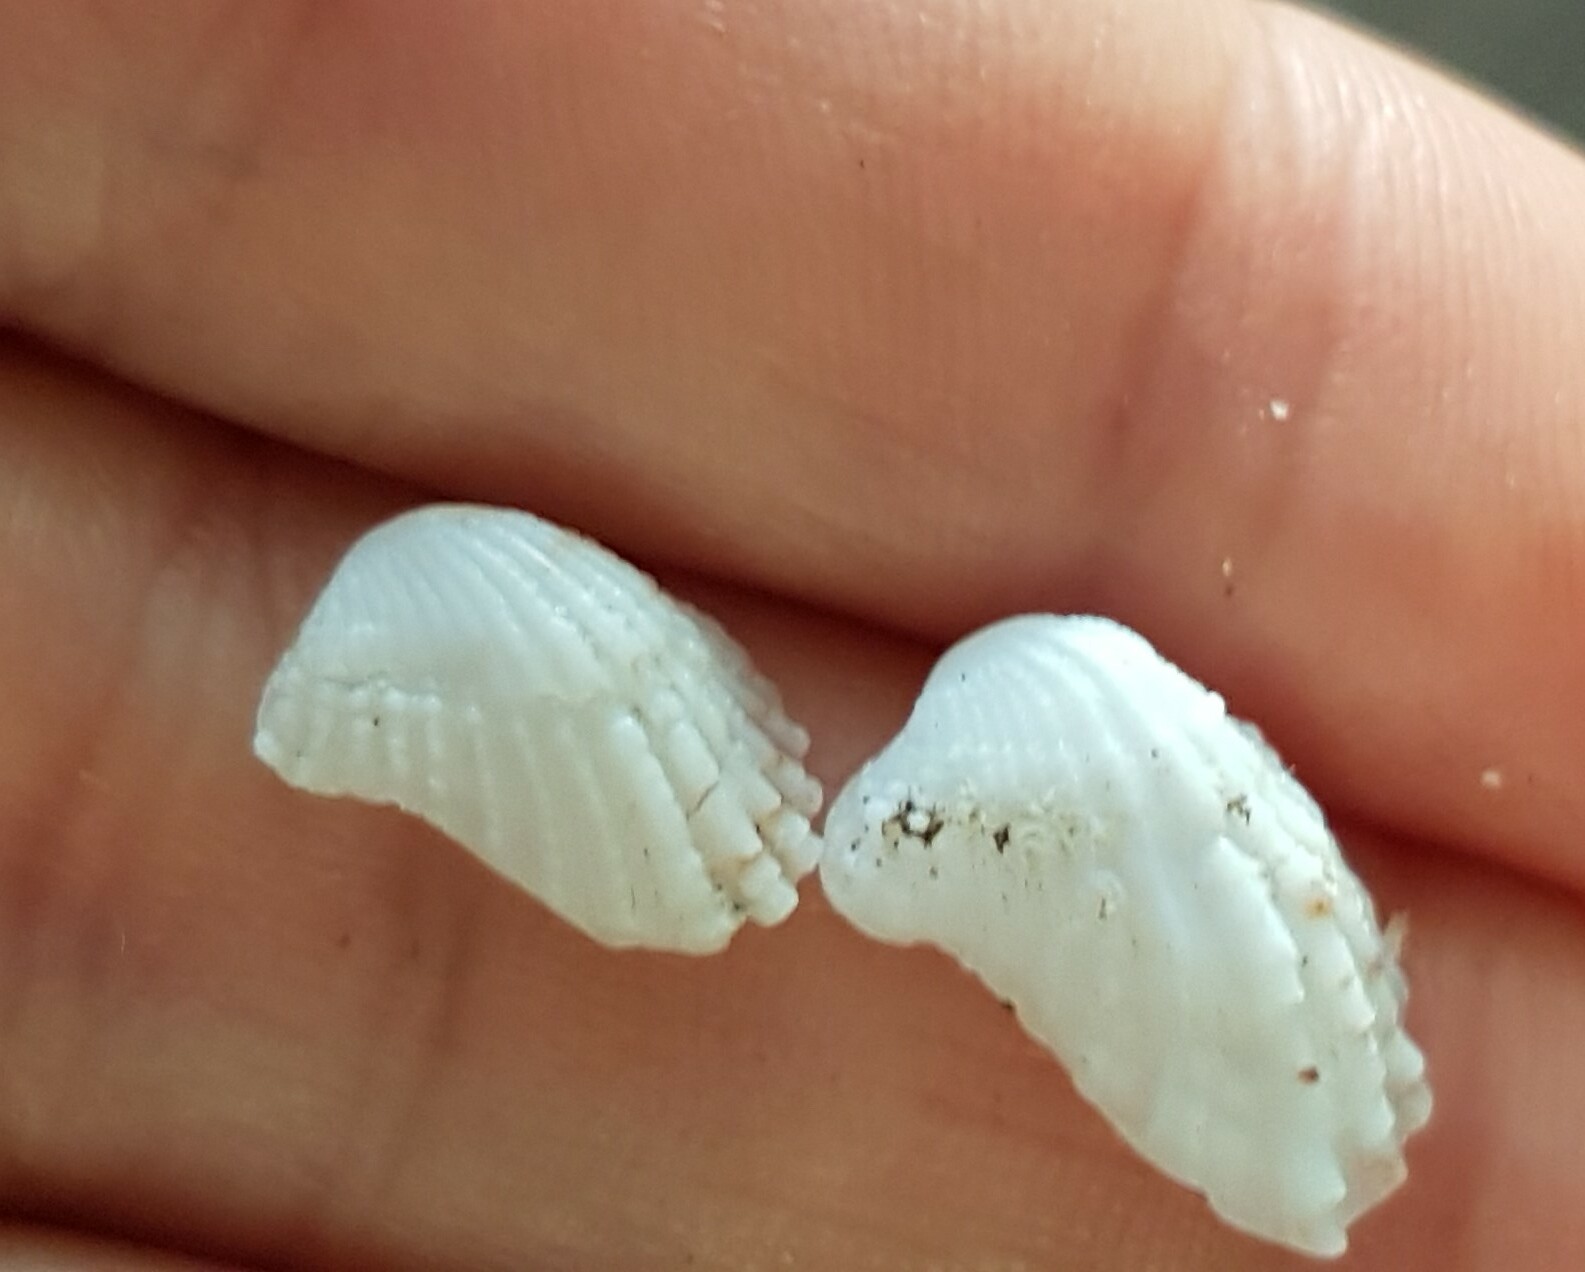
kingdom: Animalia
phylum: Mollusca
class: Bivalvia
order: Carditida
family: Carditidae
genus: Cardita
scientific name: Cardita calyculata
